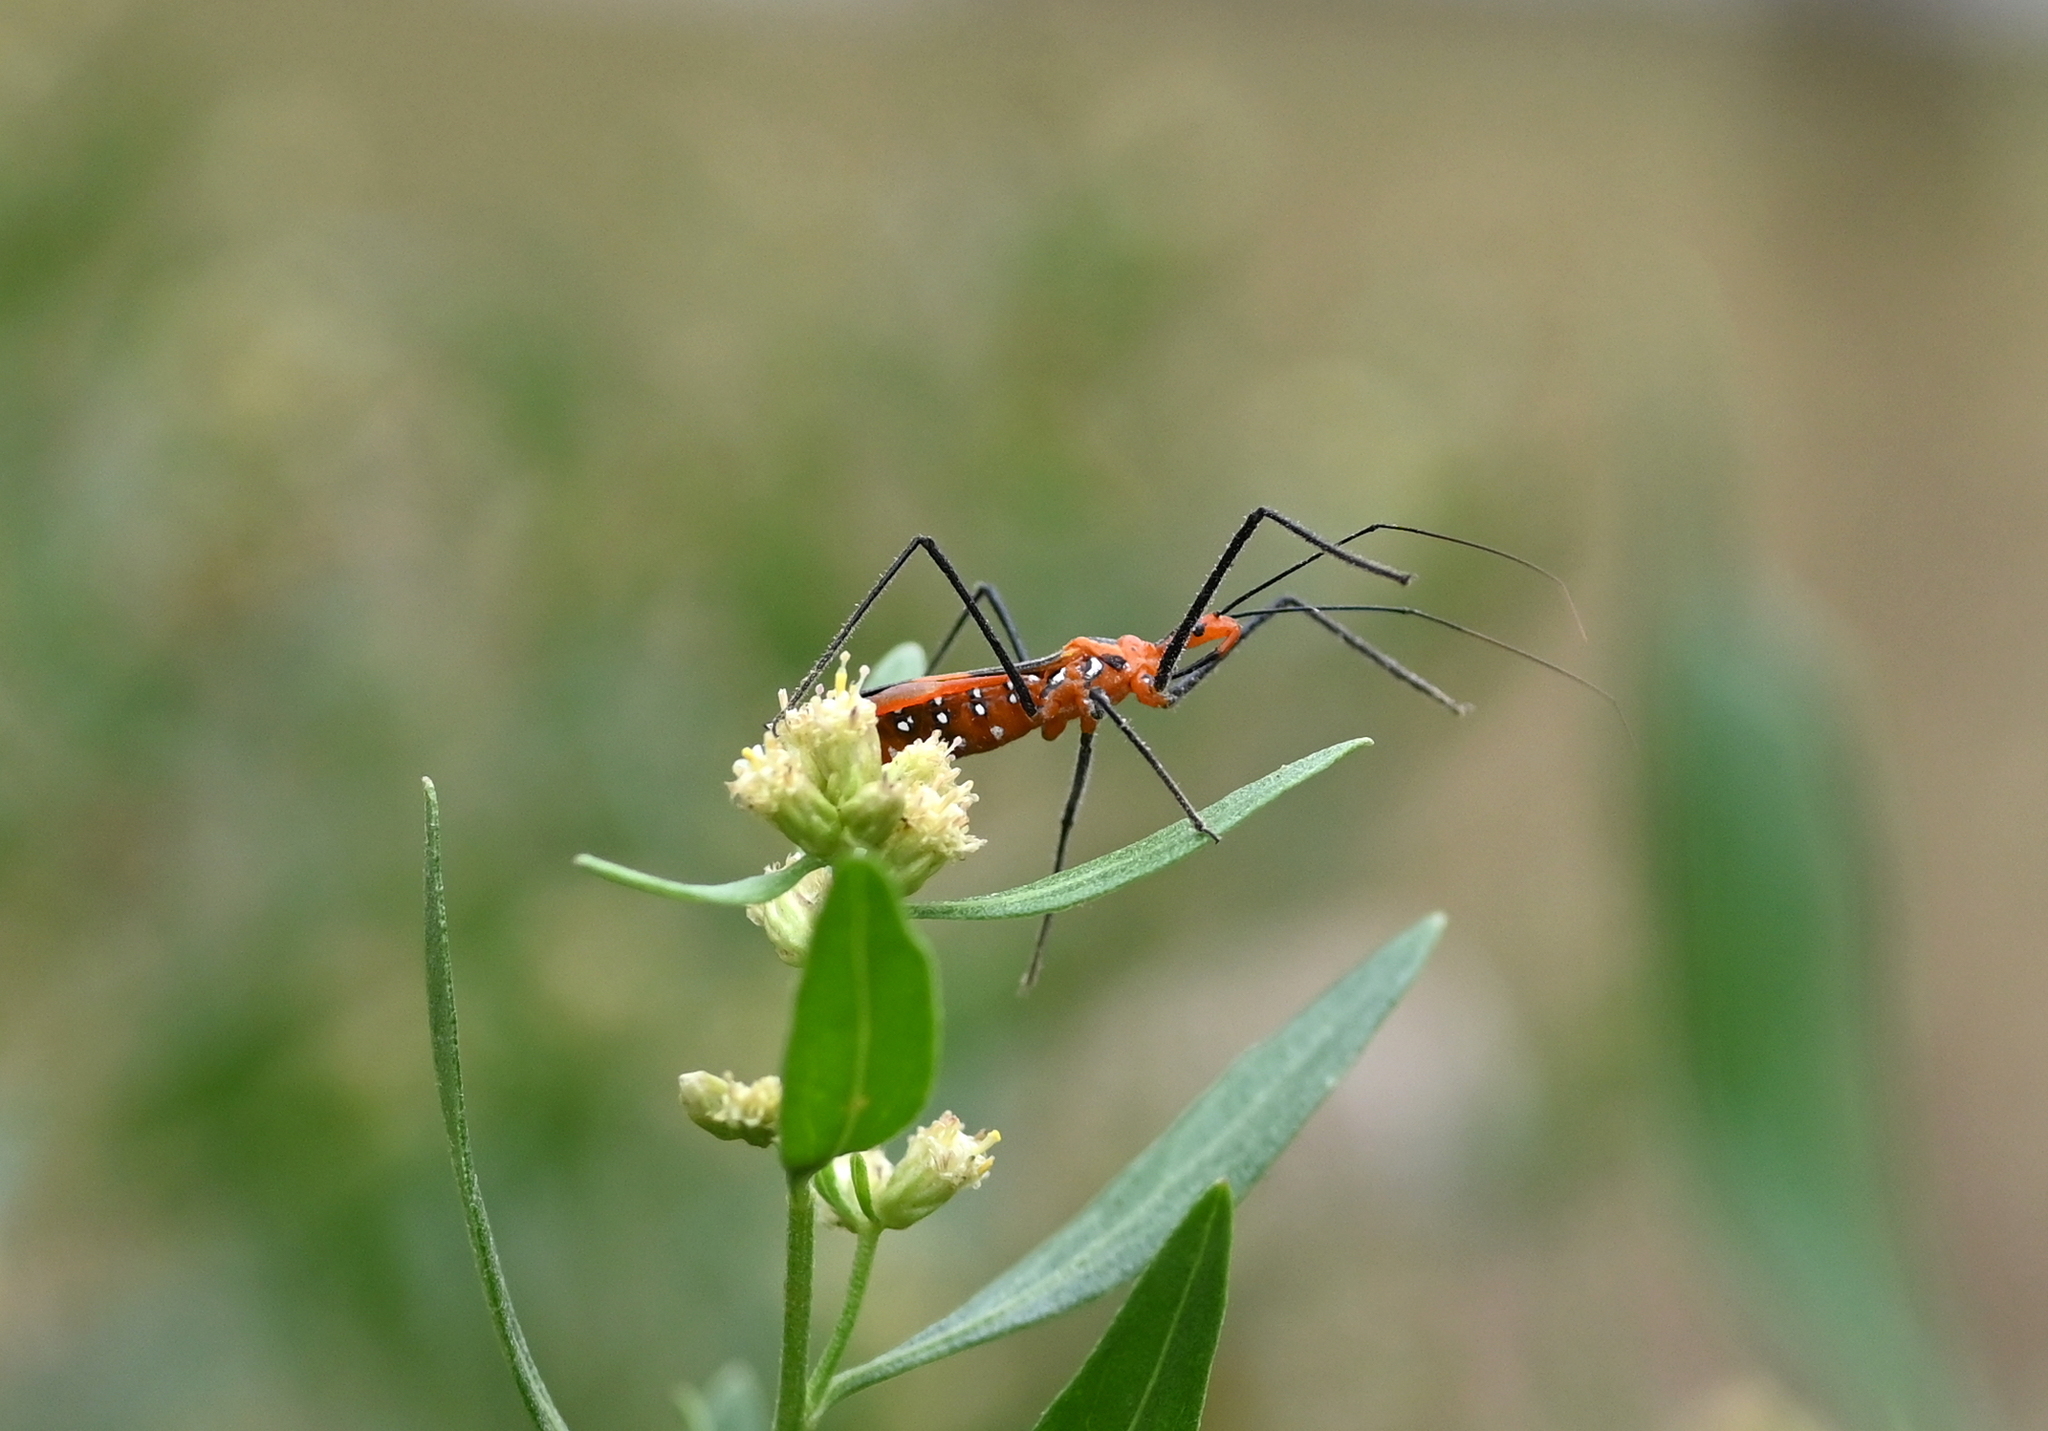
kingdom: Animalia
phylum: Arthropoda
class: Insecta
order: Hemiptera
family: Reduviidae
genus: Zelus
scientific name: Zelus longipes
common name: Milkweed assassin bug
